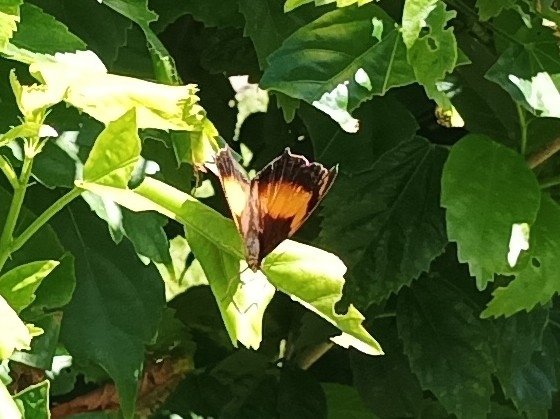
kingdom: Animalia
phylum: Arthropoda
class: Insecta
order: Lepidoptera
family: Nymphalidae
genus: Yoma
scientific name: Yoma sabina
